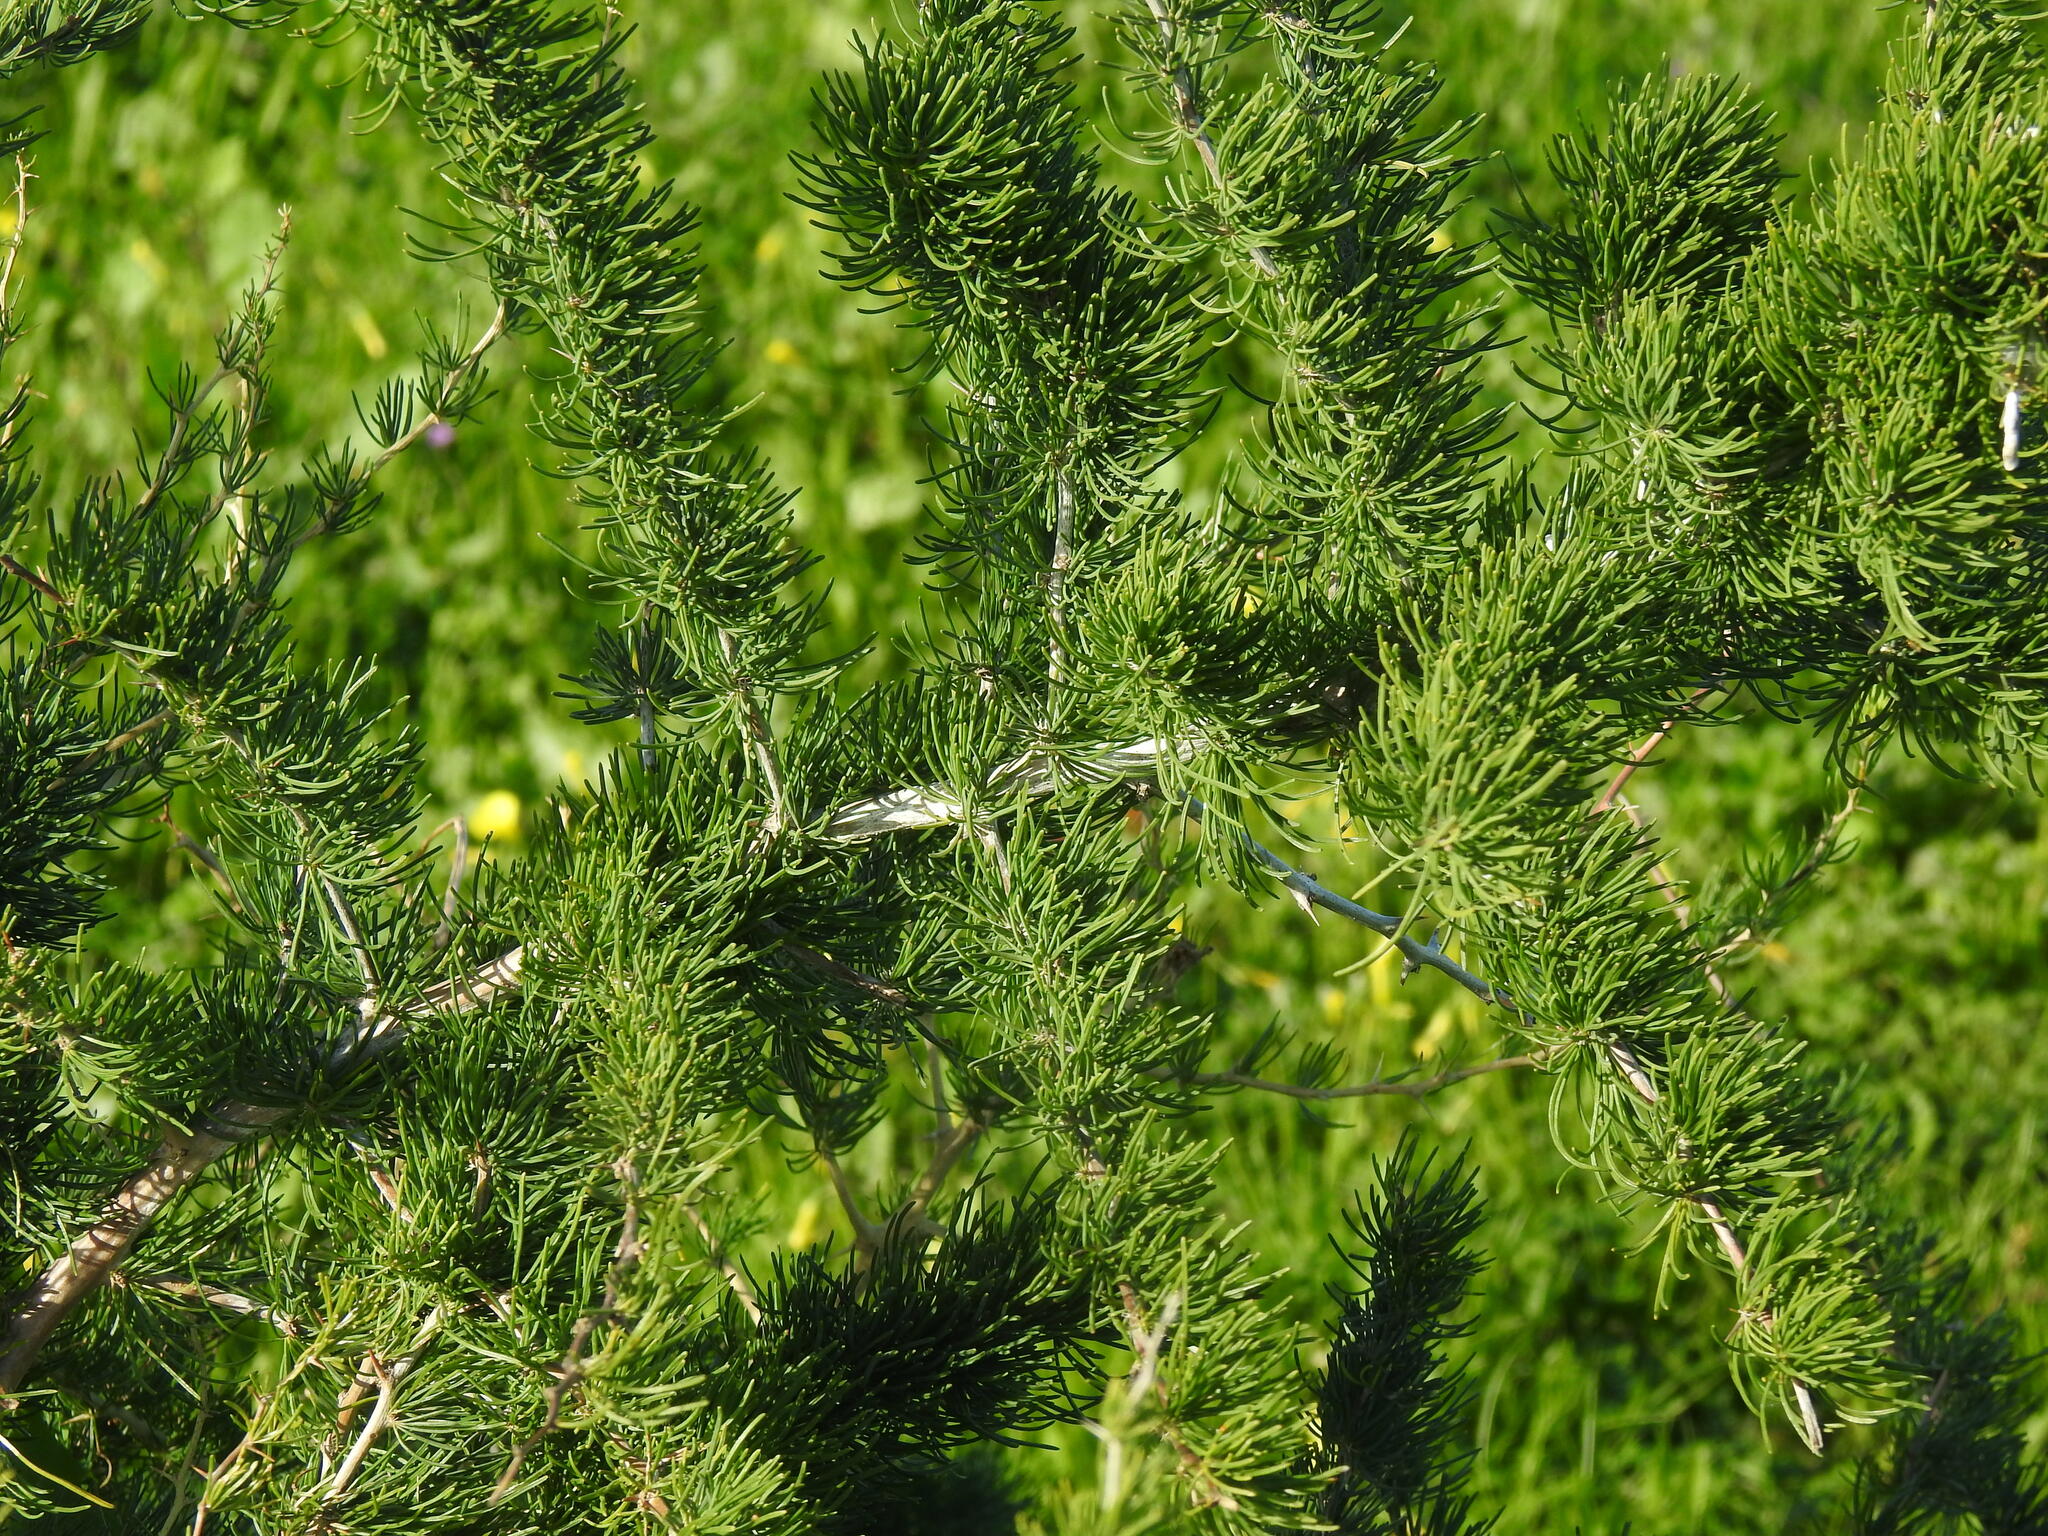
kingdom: Plantae
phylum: Tracheophyta
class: Liliopsida
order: Asparagales
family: Asparagaceae
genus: Asparagus
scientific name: Asparagus albus
